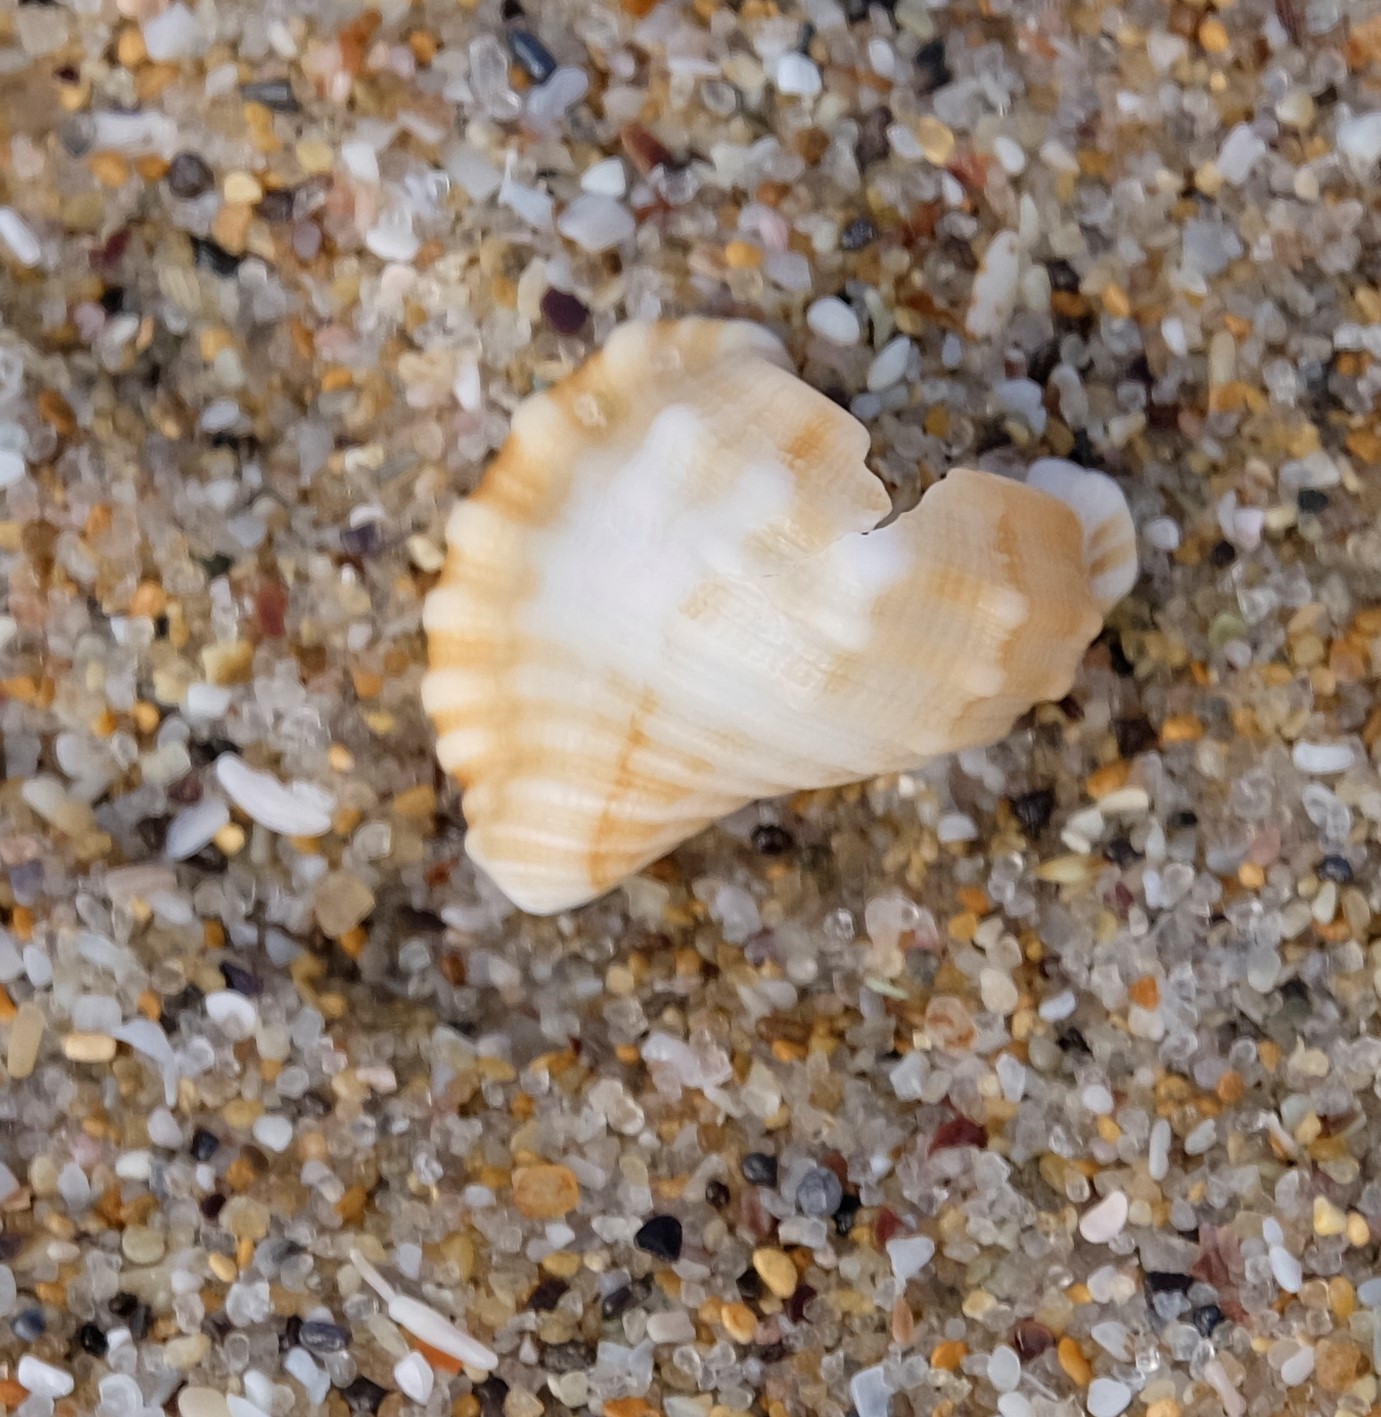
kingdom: Animalia
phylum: Mollusca
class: Gastropoda
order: Littorinimorpha
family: Cymatiidae
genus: Cabestana
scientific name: Cabestana tabulata
